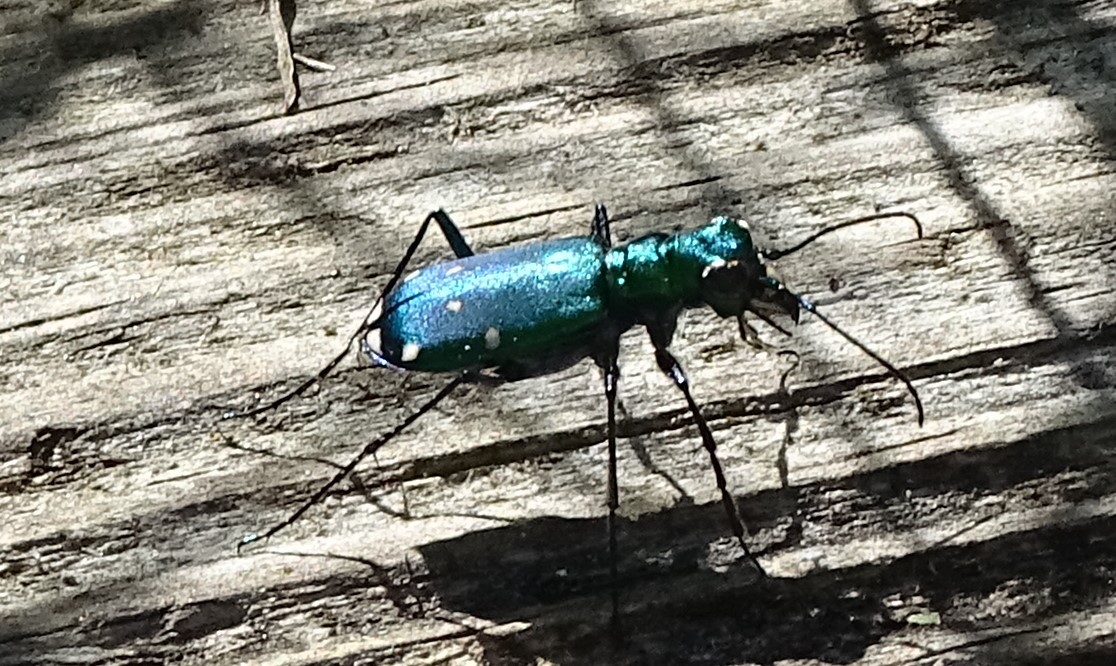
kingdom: Animalia
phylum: Arthropoda
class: Insecta
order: Coleoptera
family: Carabidae
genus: Cicindela
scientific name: Cicindela sexguttata
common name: Six-spotted tiger beetle
